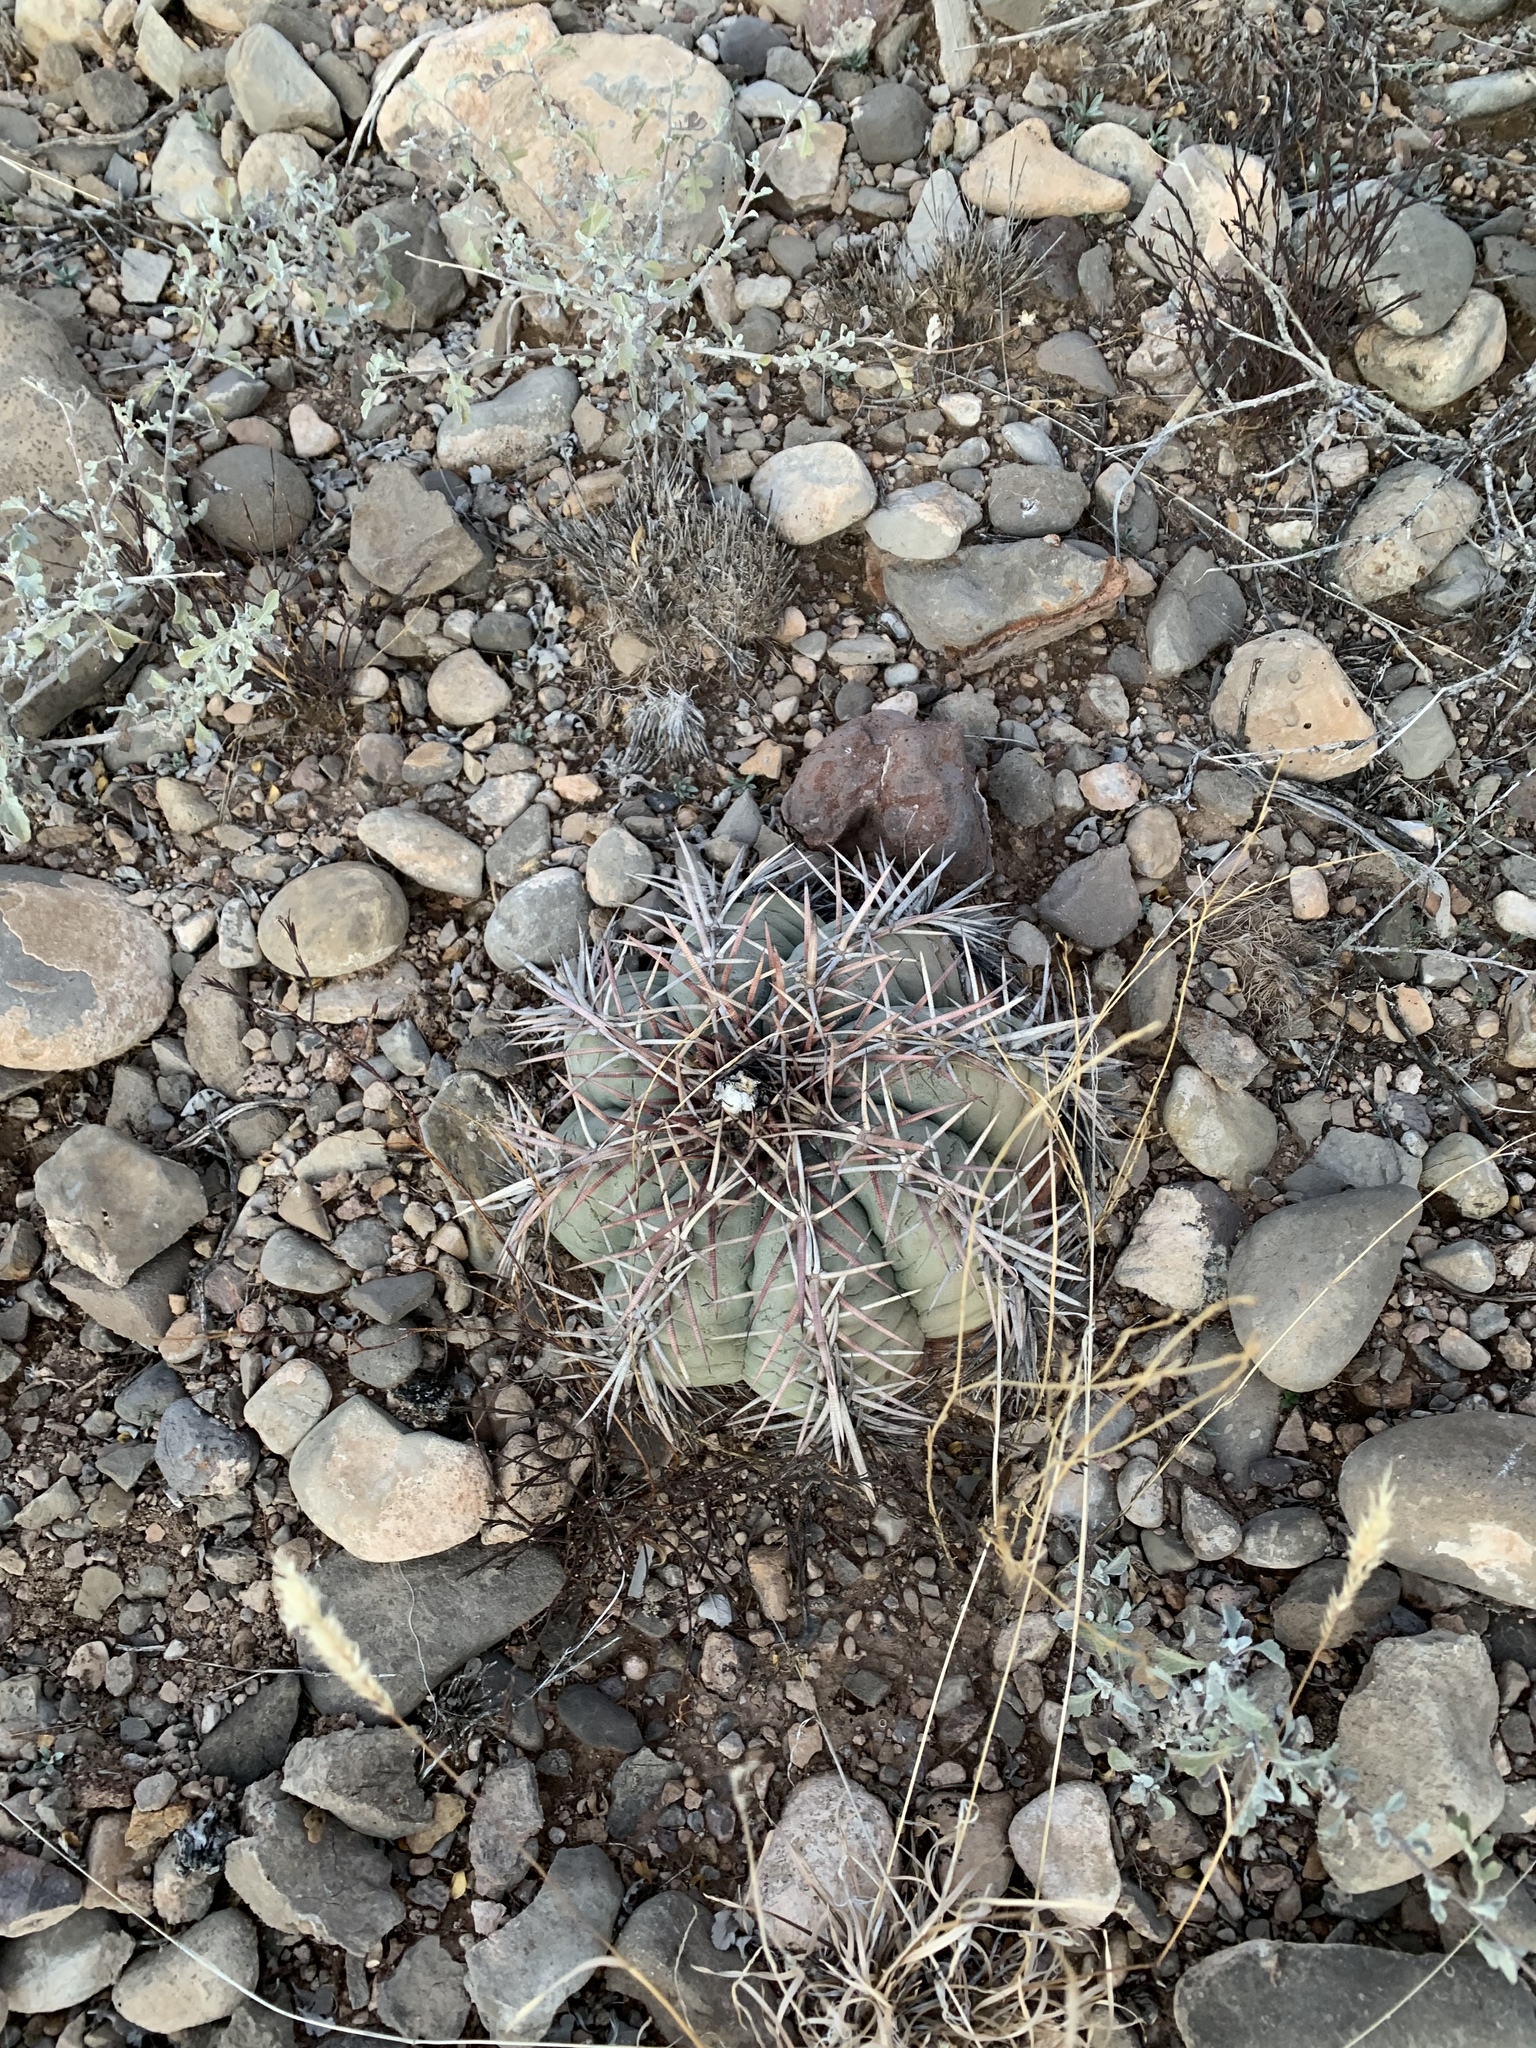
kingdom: Plantae
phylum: Tracheophyta
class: Magnoliopsida
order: Caryophyllales
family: Cactaceae
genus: Echinocactus
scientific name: Echinocactus horizonthalonius
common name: Devilshead
